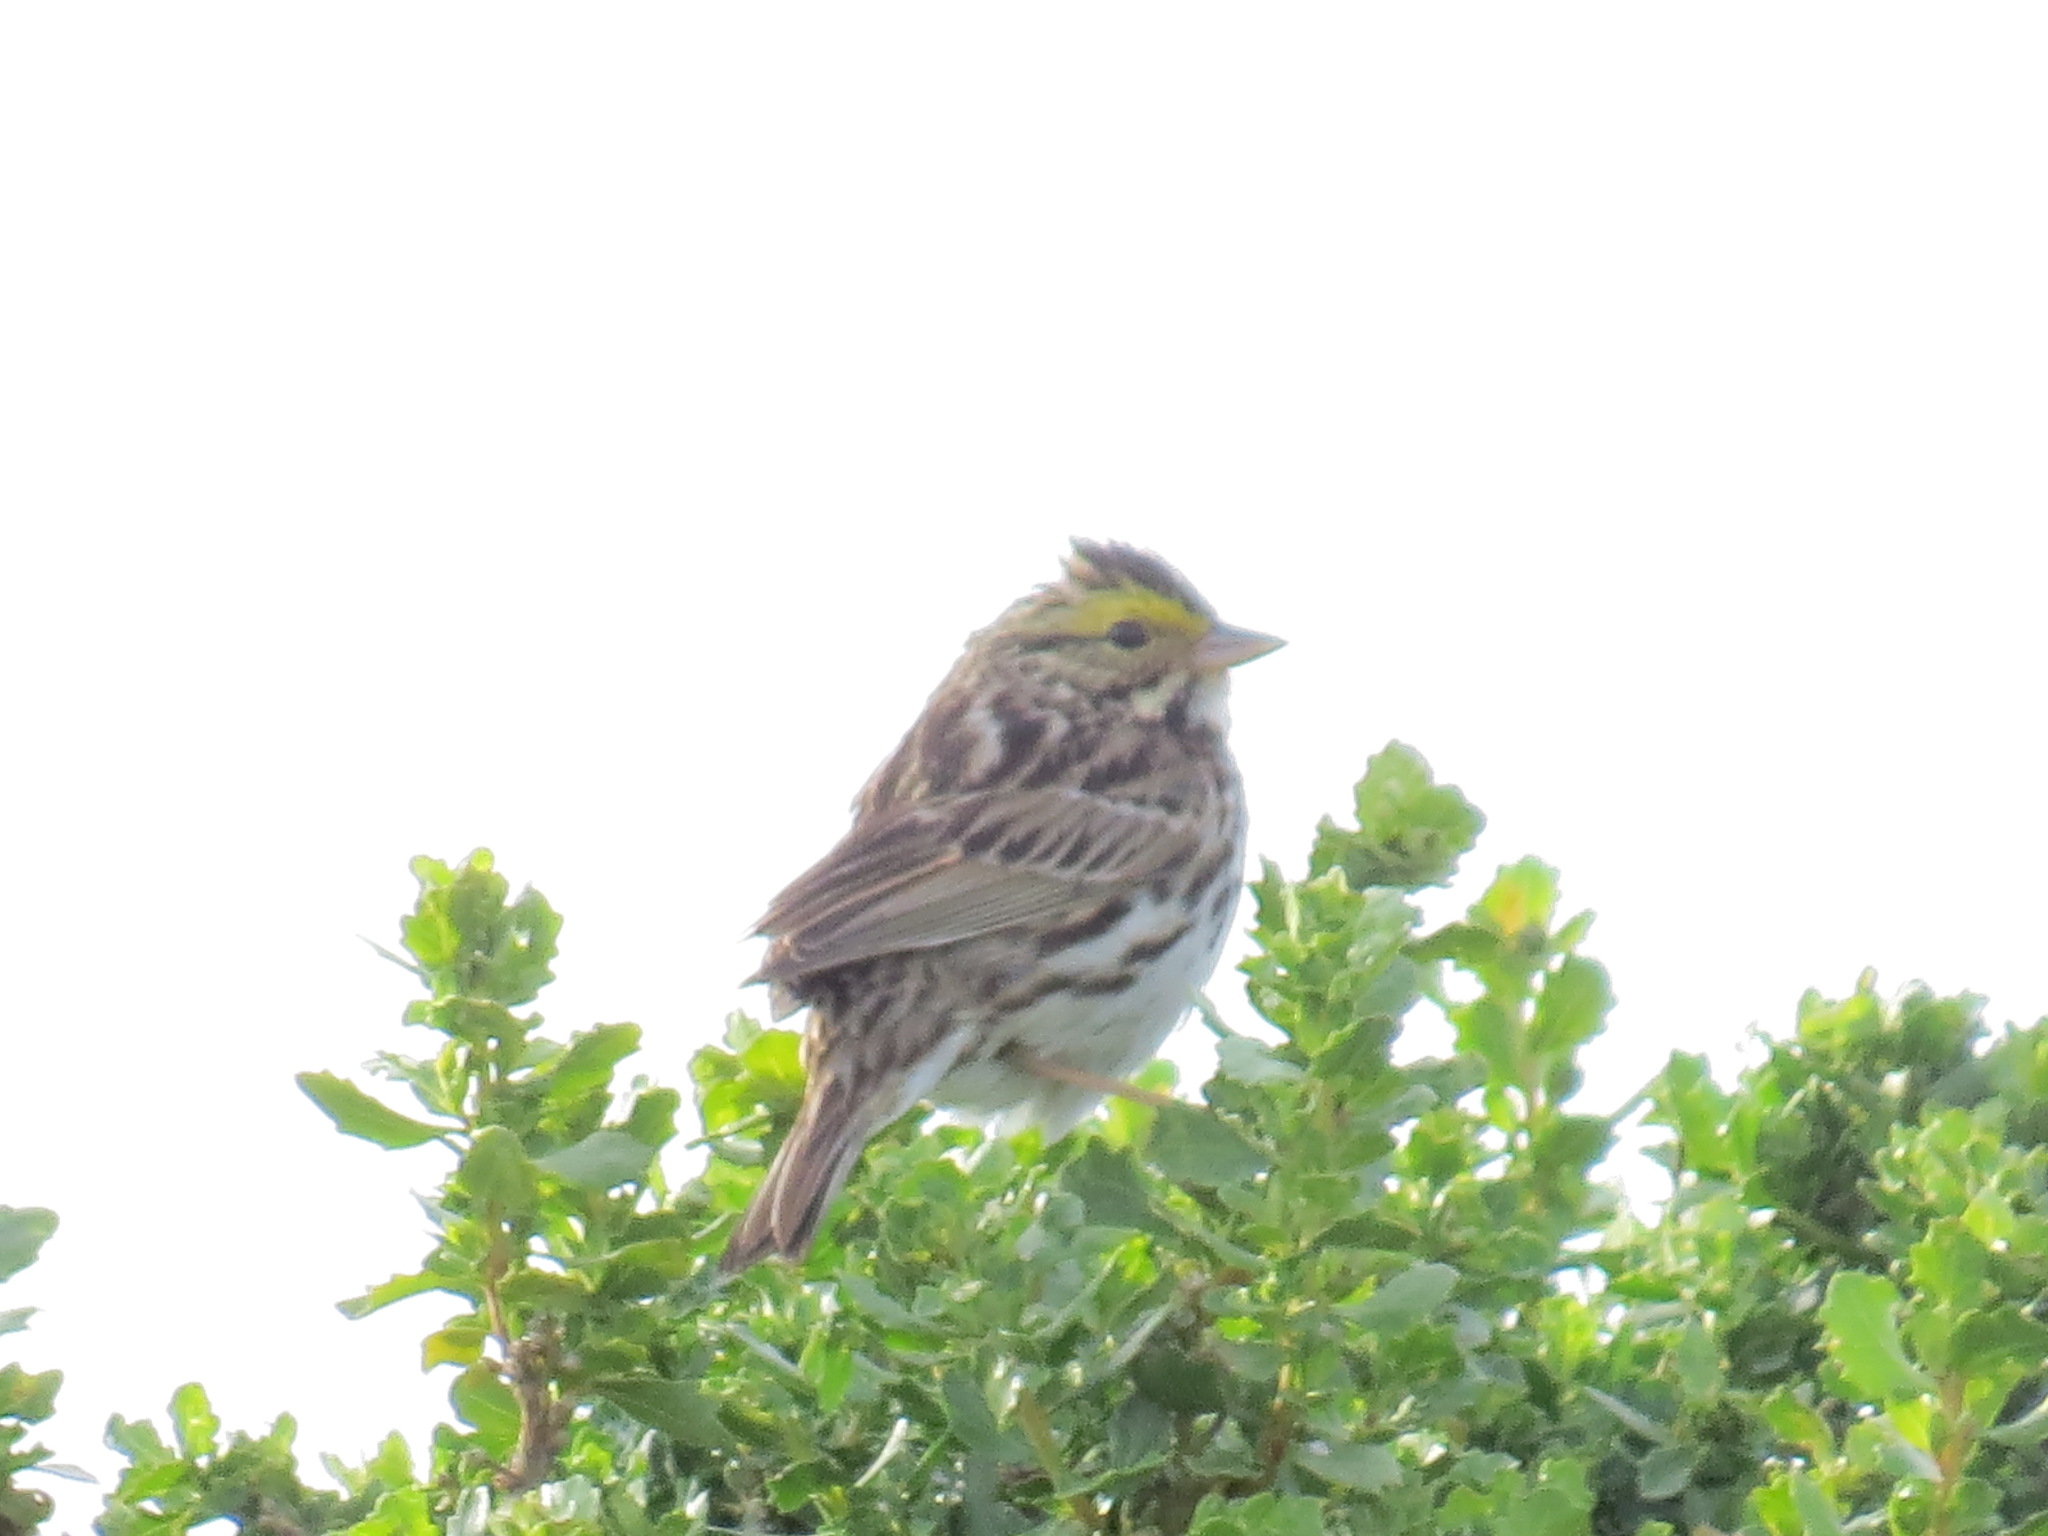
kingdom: Animalia
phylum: Chordata
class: Aves
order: Passeriformes
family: Passerellidae
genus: Passerculus
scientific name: Passerculus sandwichensis
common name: Savannah sparrow
